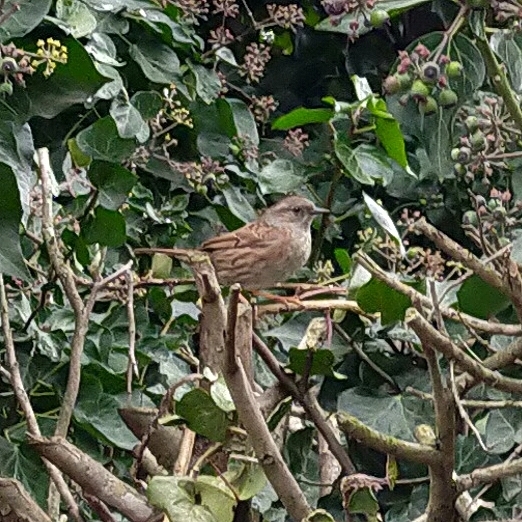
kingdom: Animalia
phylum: Chordata
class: Aves
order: Passeriformes
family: Prunellidae
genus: Prunella
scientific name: Prunella modularis
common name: Dunnock
